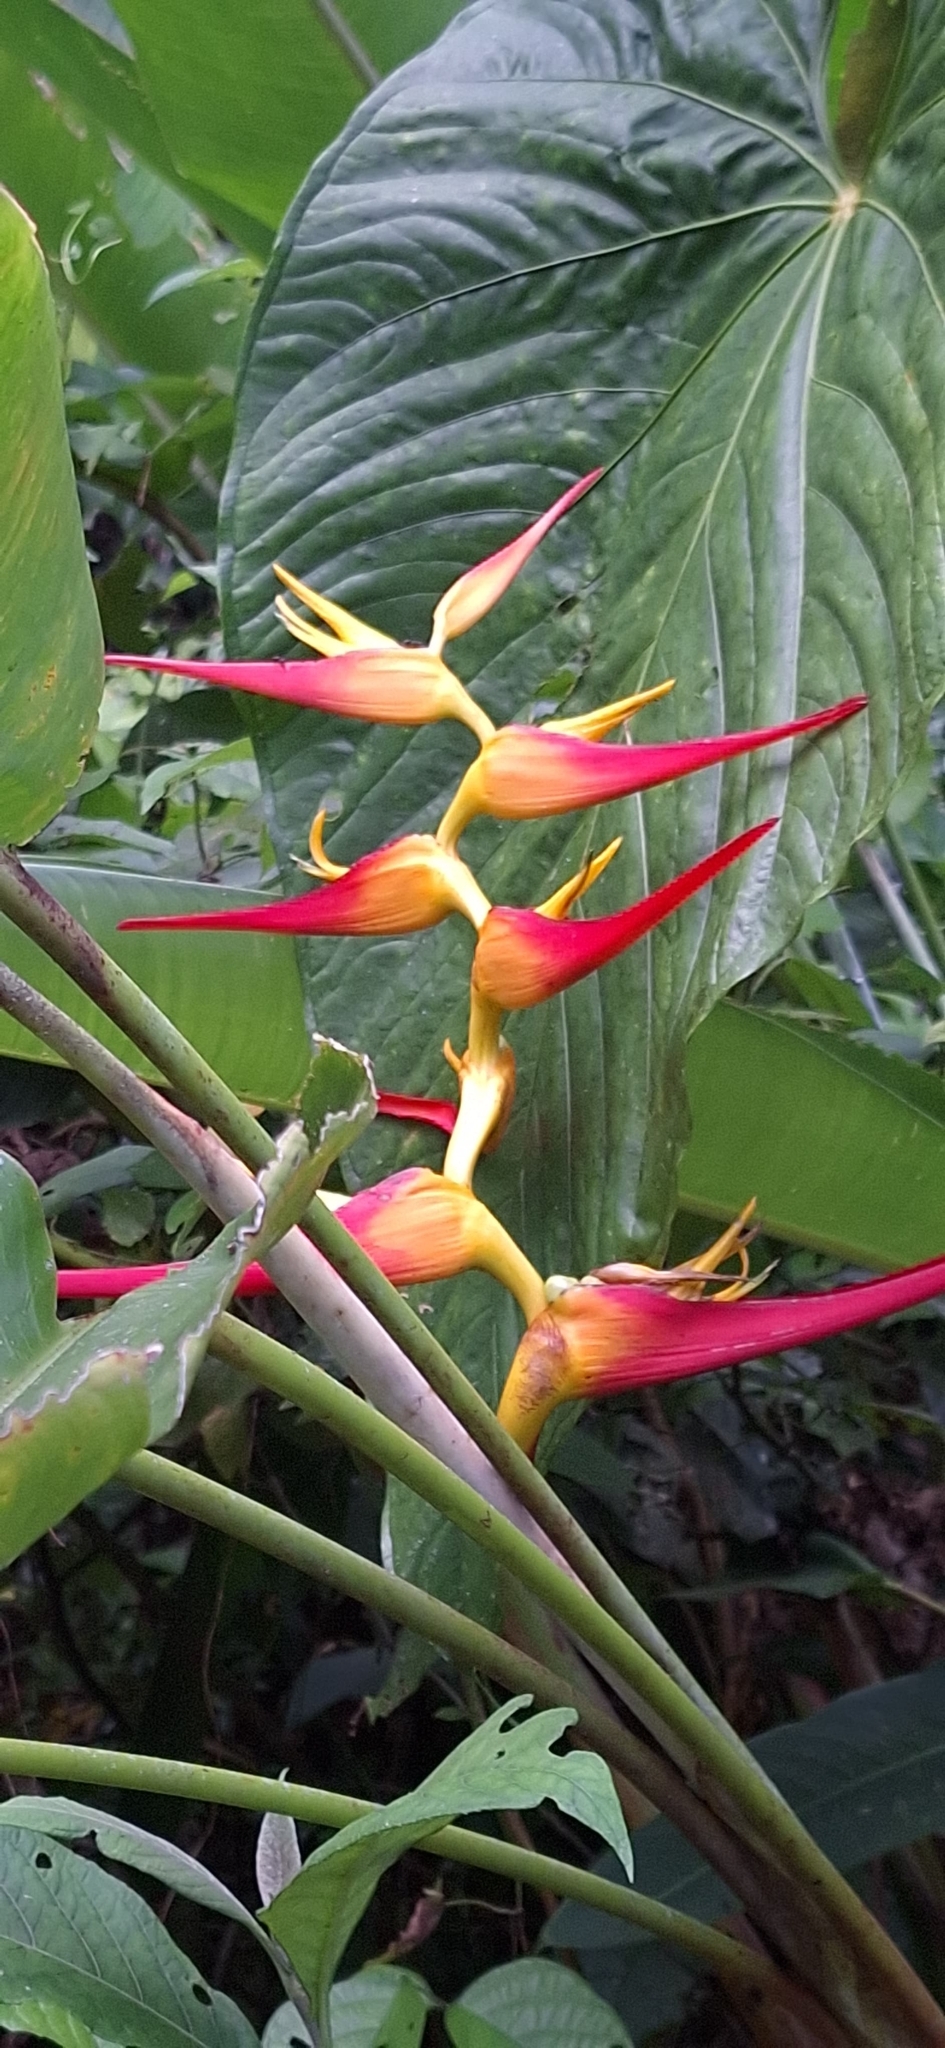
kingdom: Plantae
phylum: Tracheophyta
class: Liliopsida
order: Zingiberales
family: Heliconiaceae
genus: Heliconia
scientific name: Heliconia latispatha
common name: Expanded lobsterclaw
